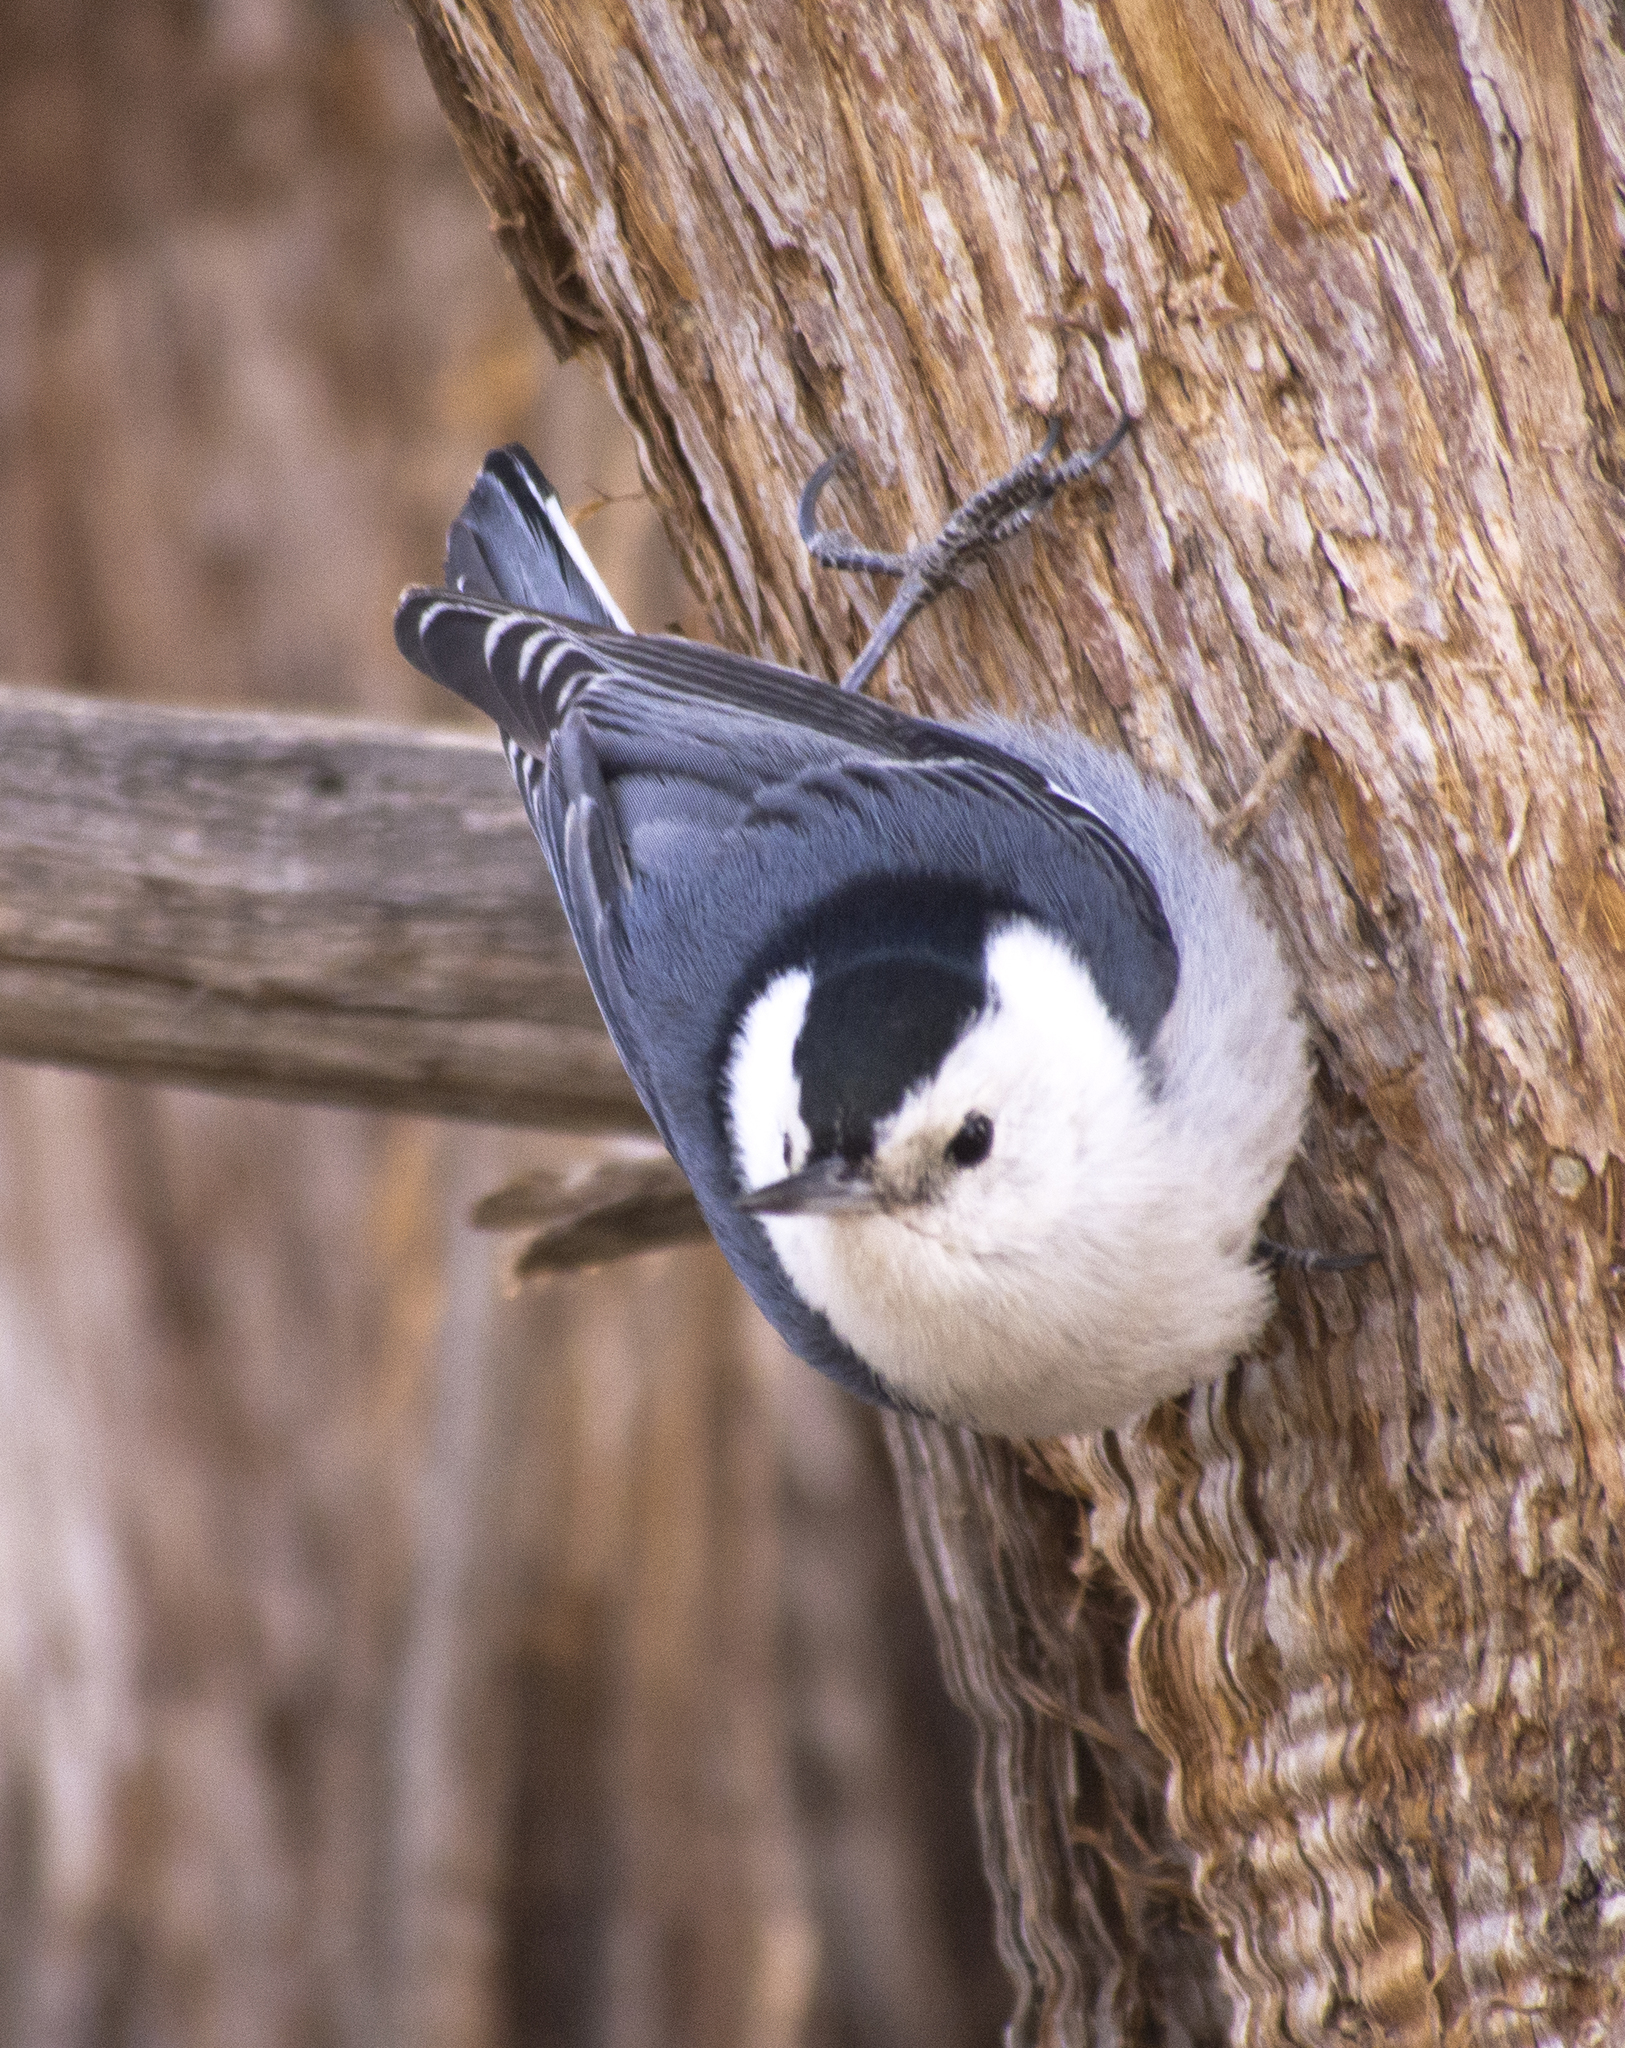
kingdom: Animalia
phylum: Chordata
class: Aves
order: Passeriformes
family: Sittidae
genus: Sitta
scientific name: Sitta carolinensis
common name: White-breasted nuthatch
